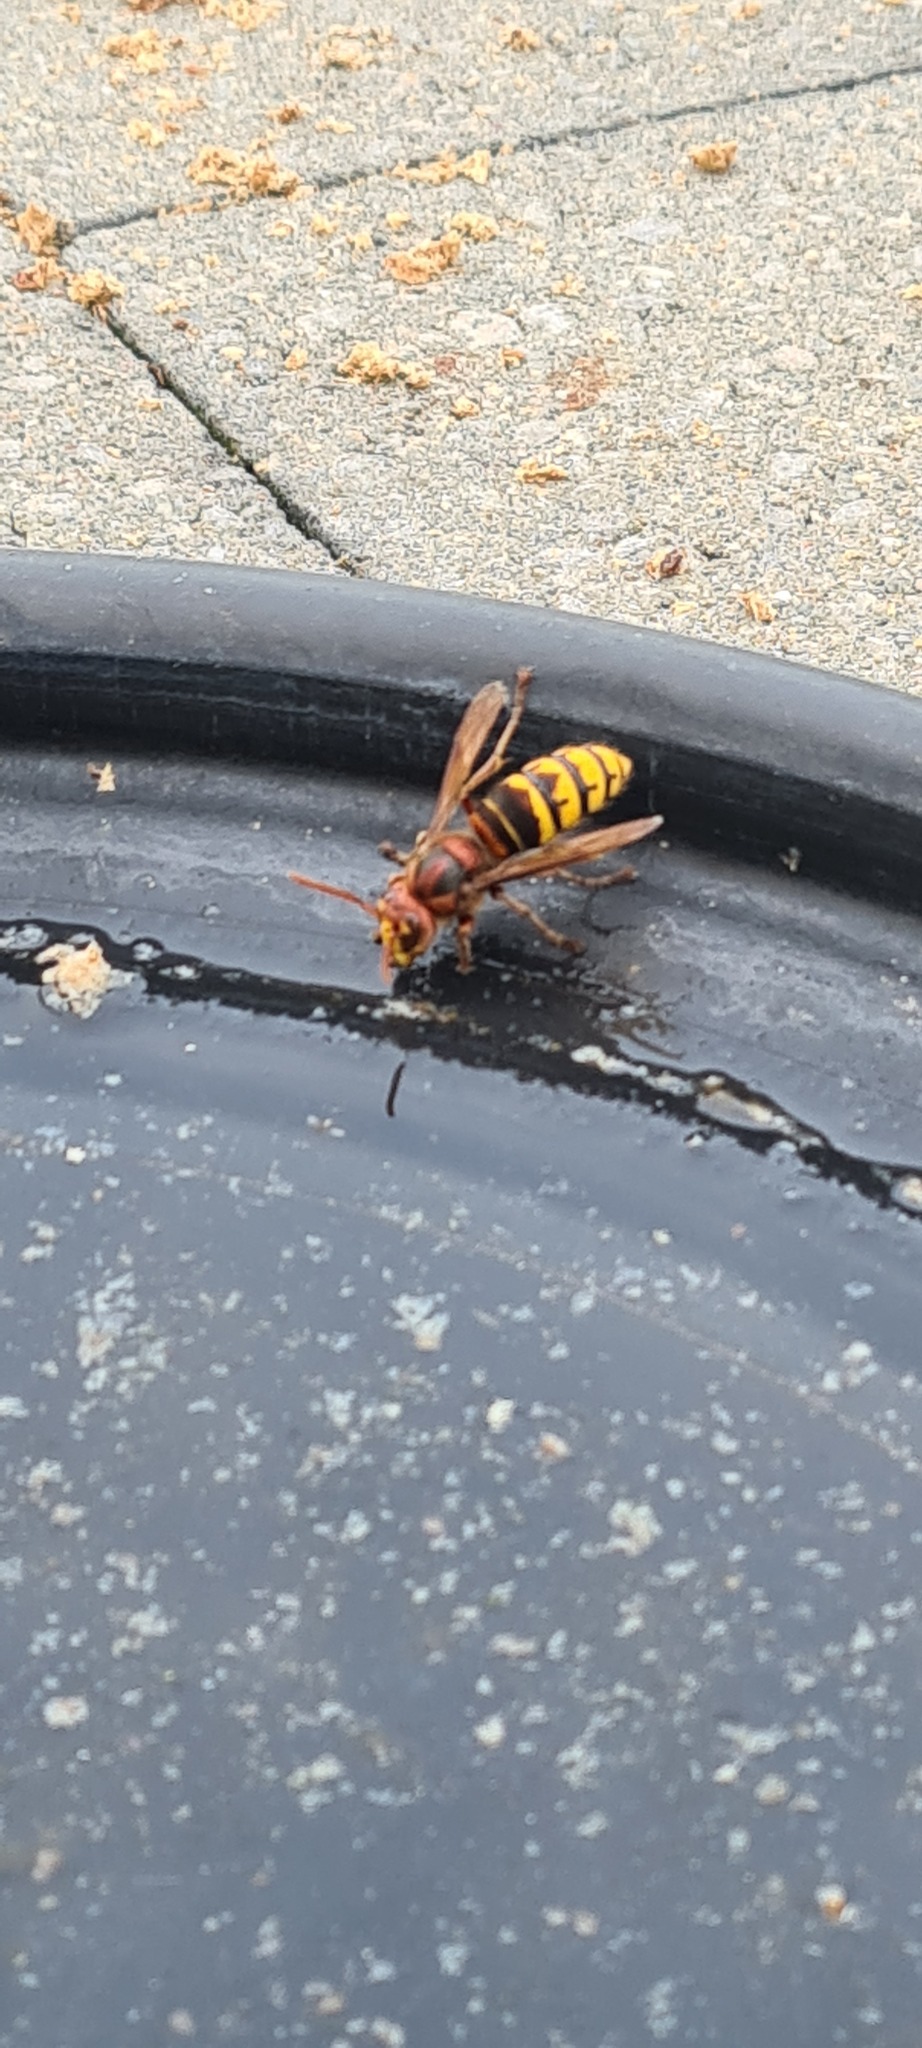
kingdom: Animalia
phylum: Arthropoda
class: Insecta
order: Hymenoptera
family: Vespidae
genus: Vespa
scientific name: Vespa crabro
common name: Hornet
